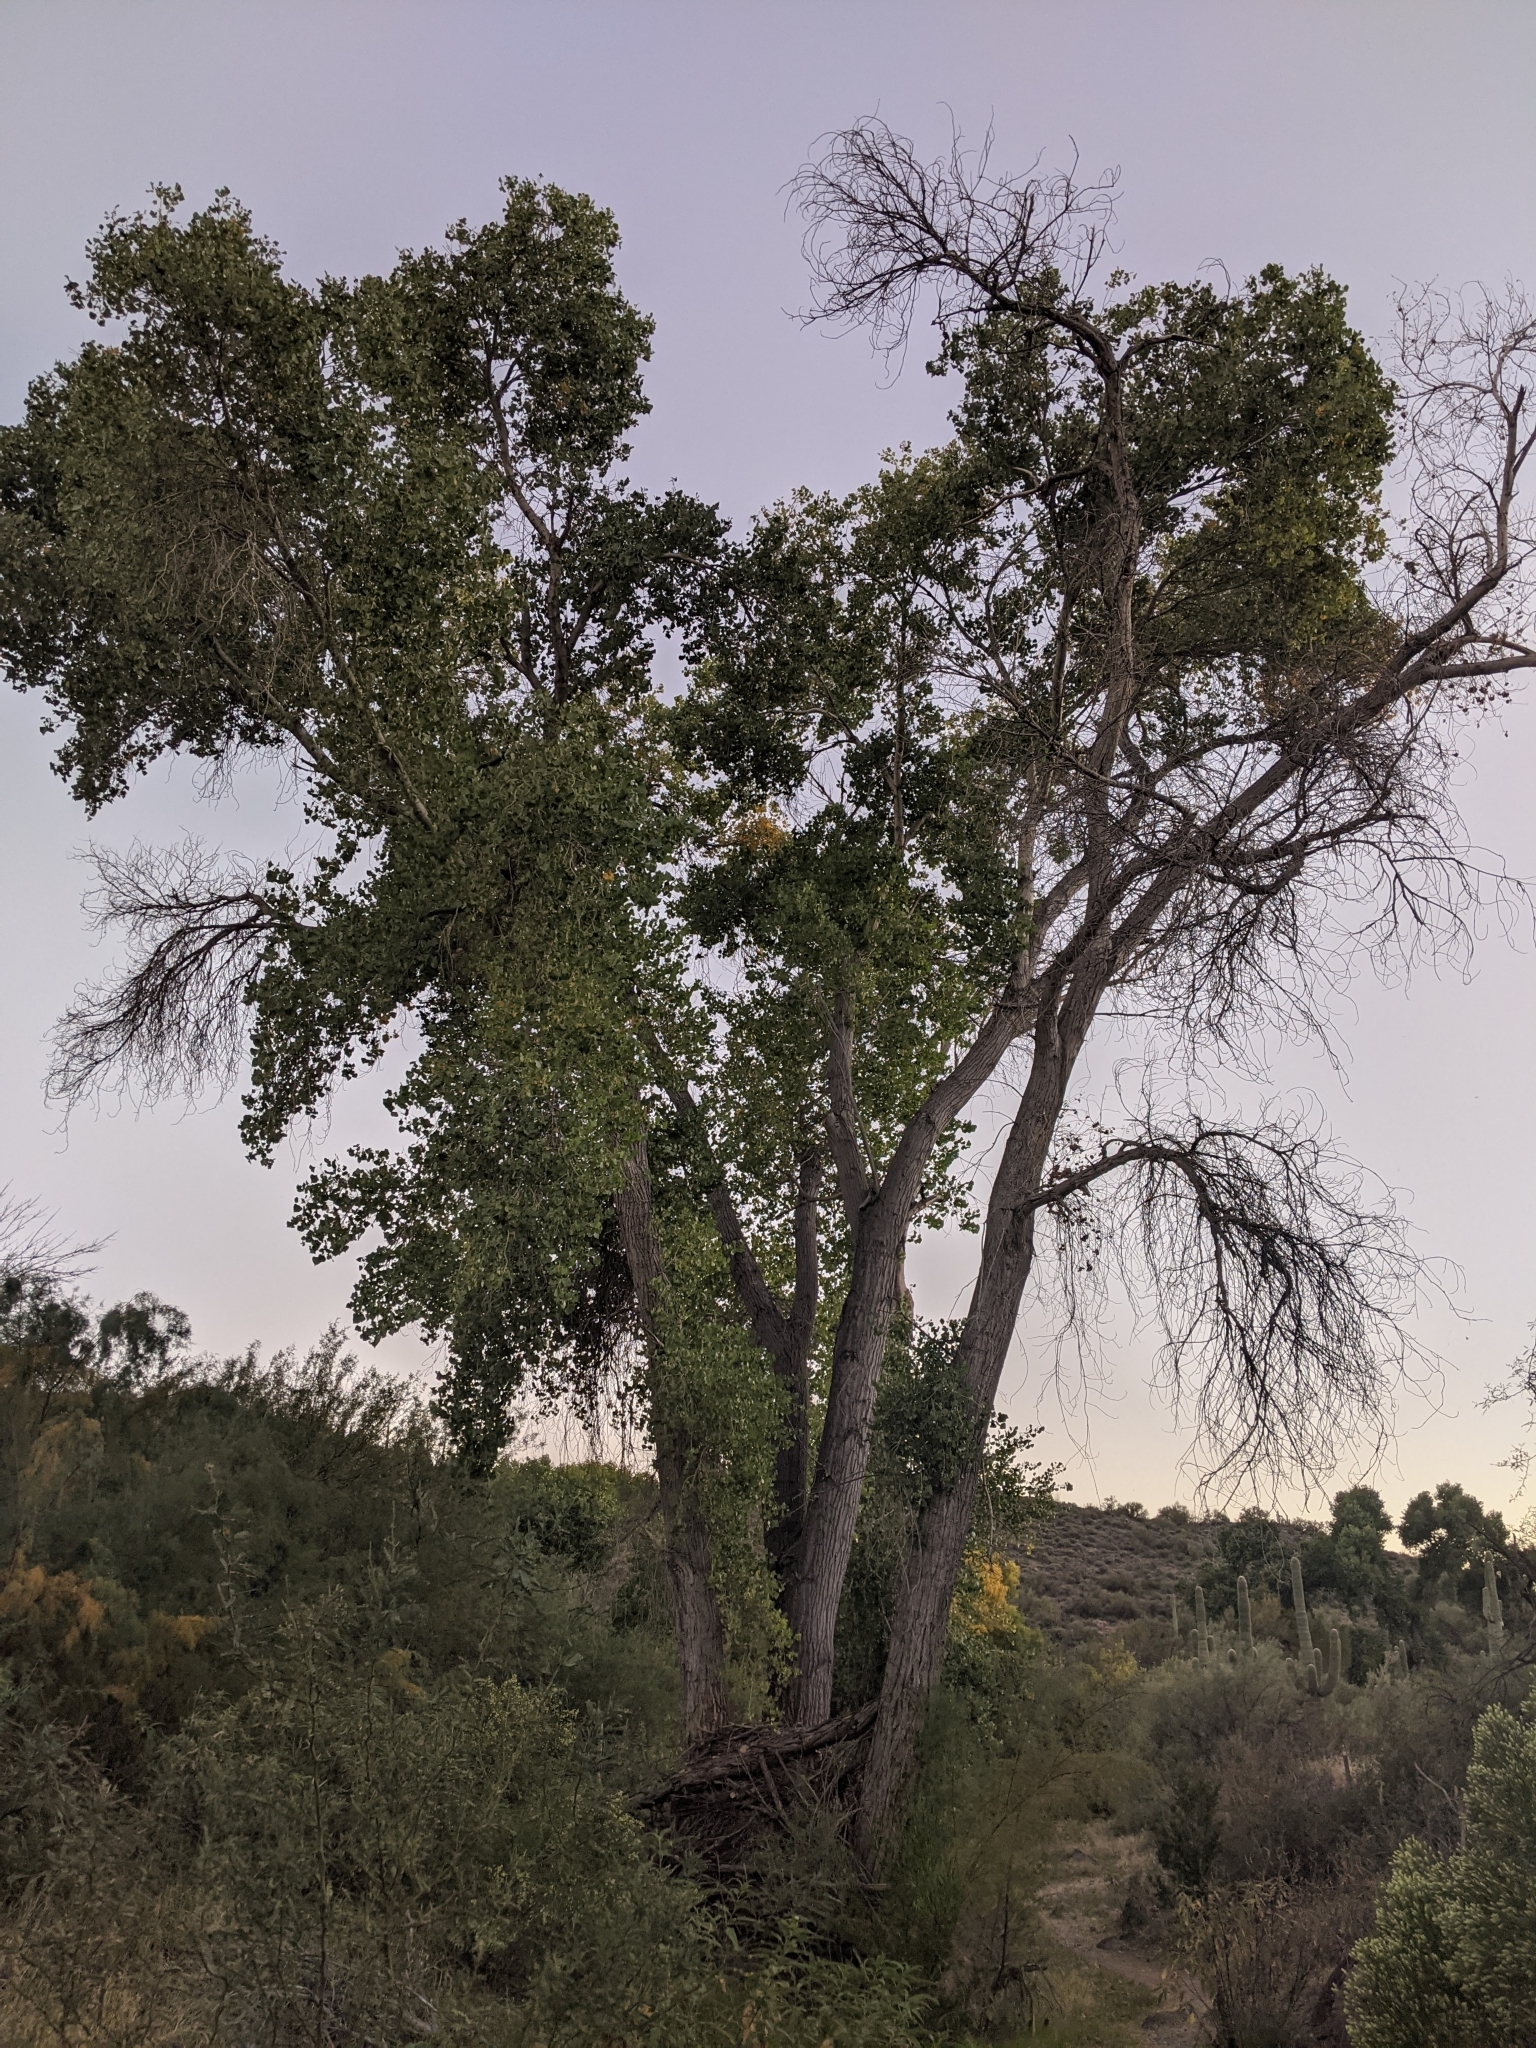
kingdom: Plantae
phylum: Tracheophyta
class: Magnoliopsida
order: Malpighiales
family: Salicaceae
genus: Populus
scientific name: Populus fremontii
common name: Fremont's cottonwood
